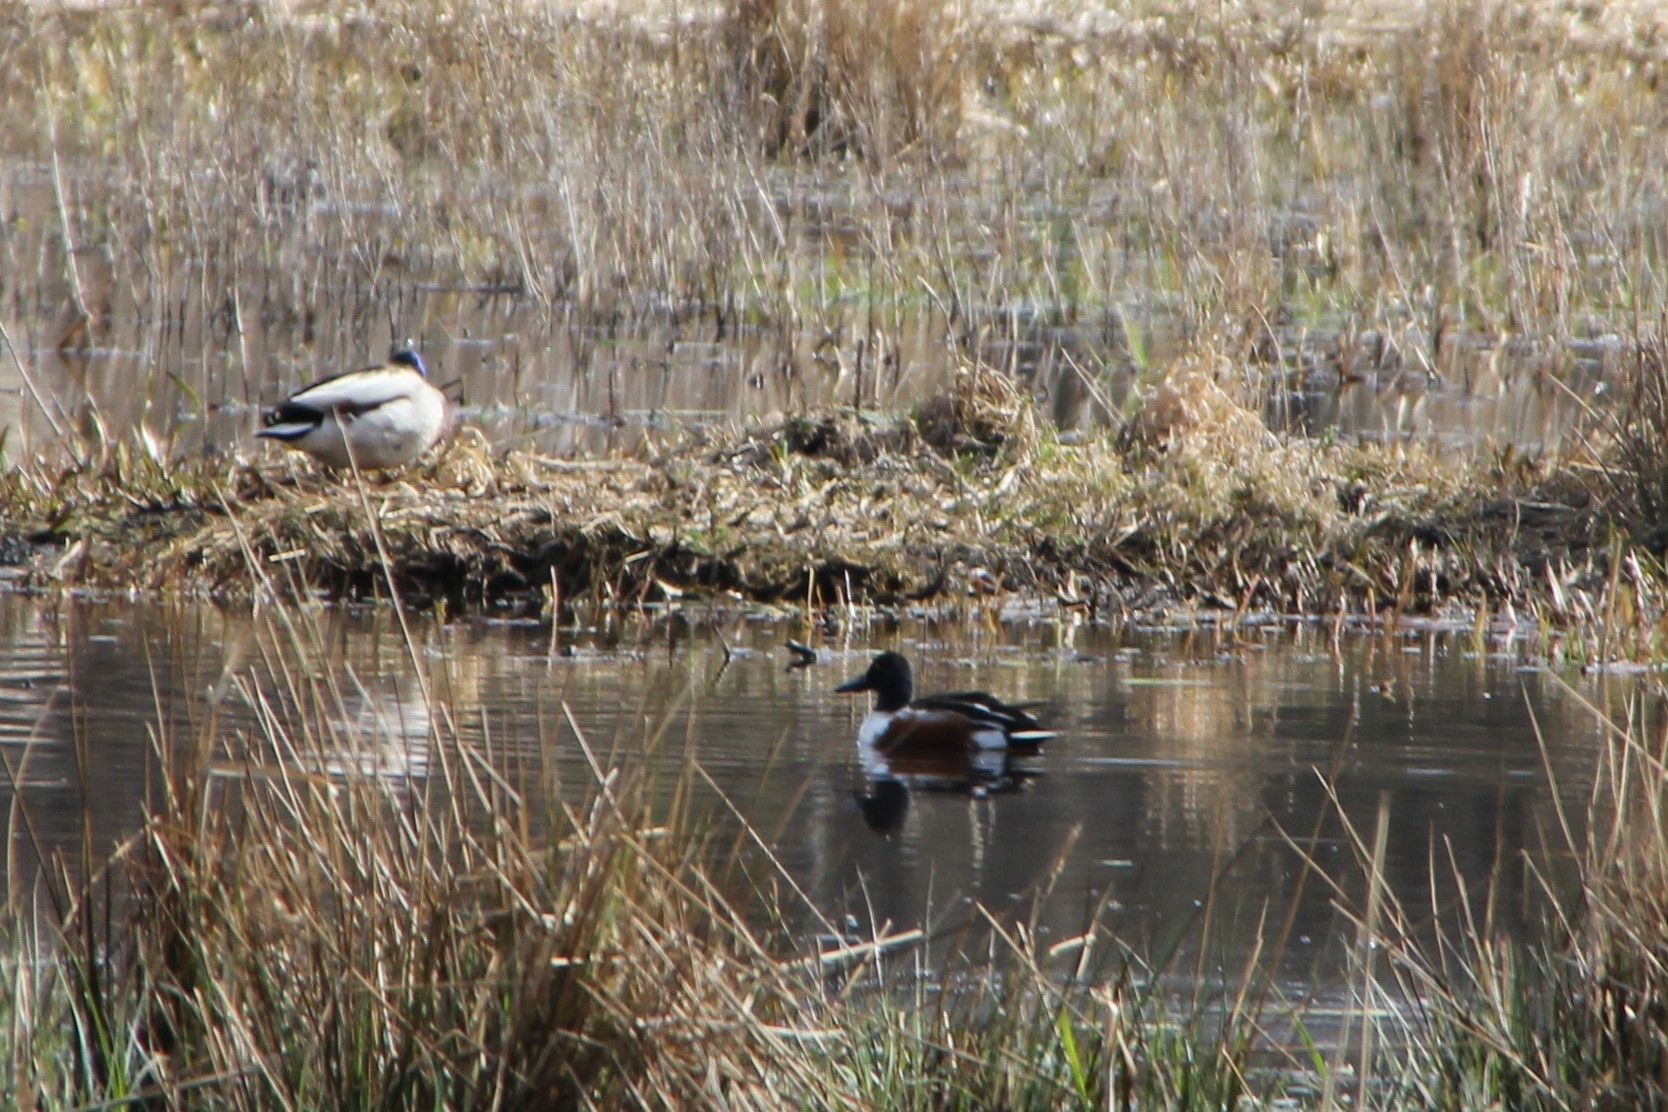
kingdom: Animalia
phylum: Chordata
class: Aves
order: Anseriformes
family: Anatidae
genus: Spatula
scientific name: Spatula clypeata
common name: Northern shoveler
